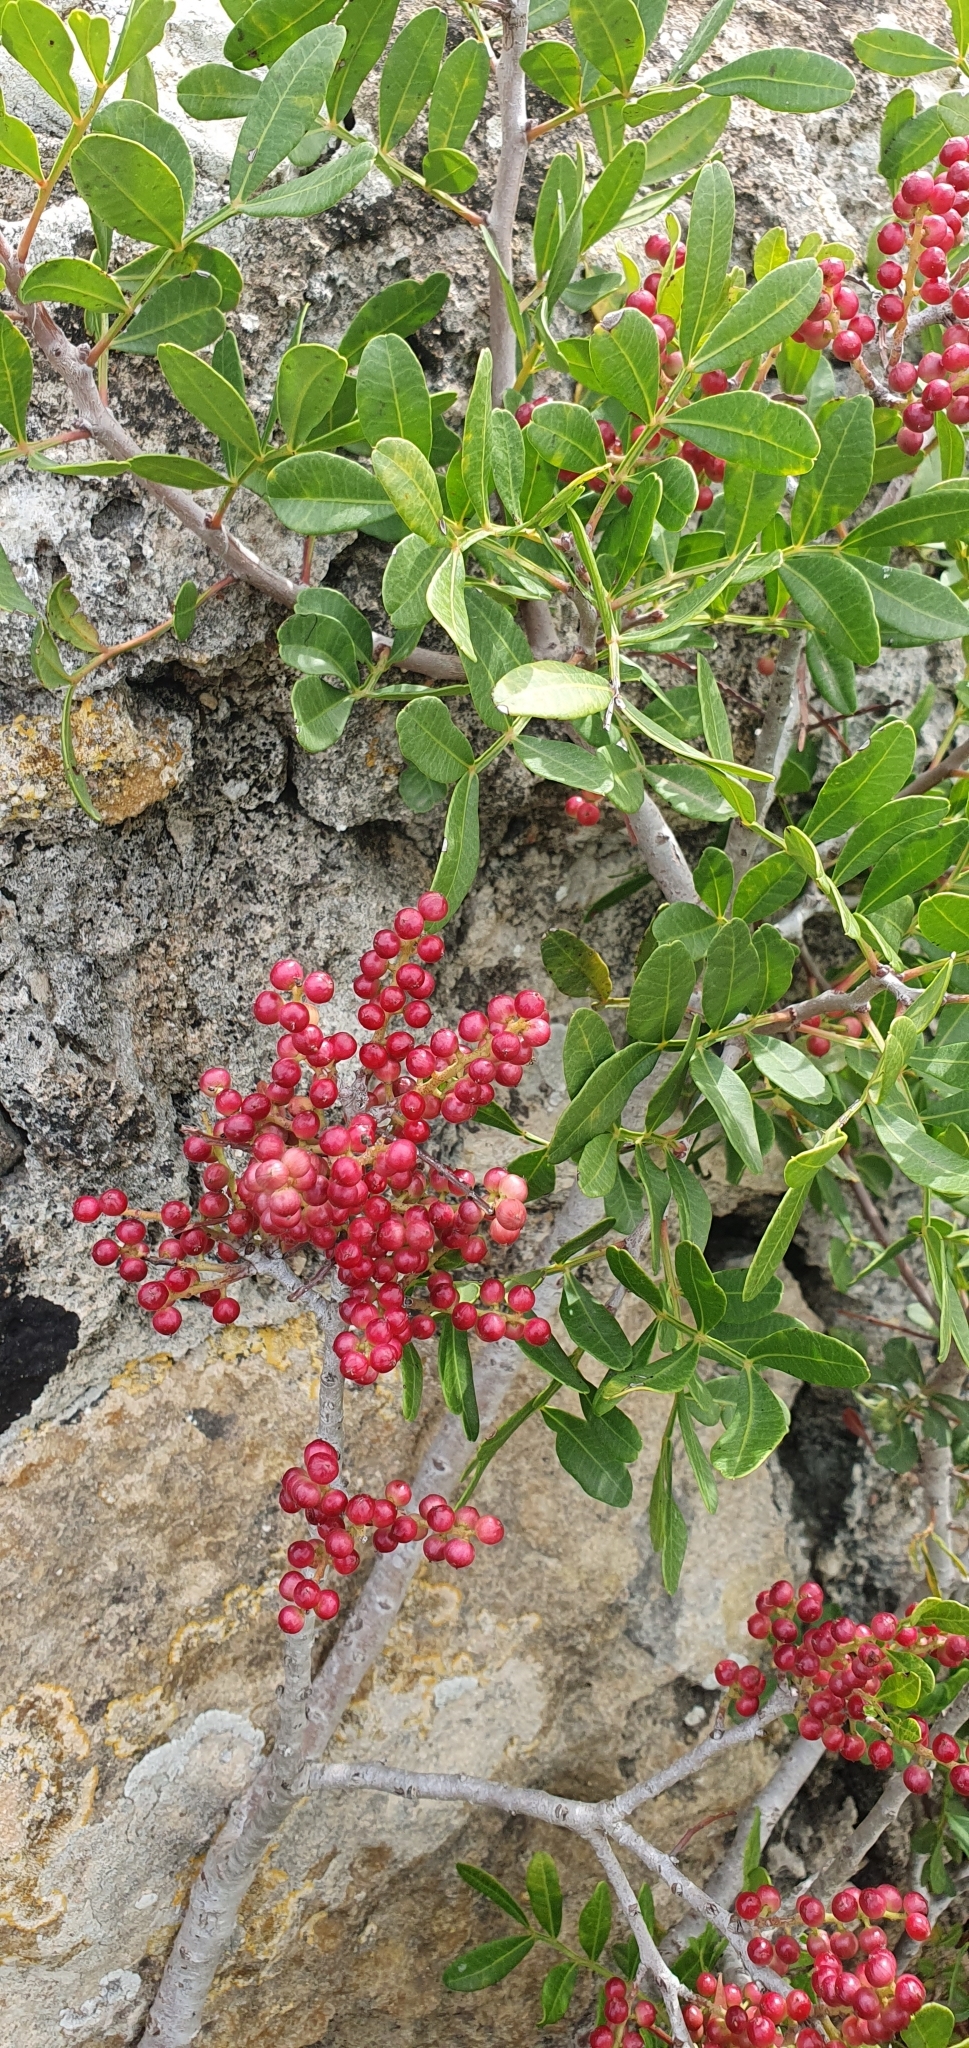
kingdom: Plantae
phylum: Tracheophyta
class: Magnoliopsida
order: Sapindales
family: Anacardiaceae
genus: Pistacia
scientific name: Pistacia lentiscus
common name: Lentisk
